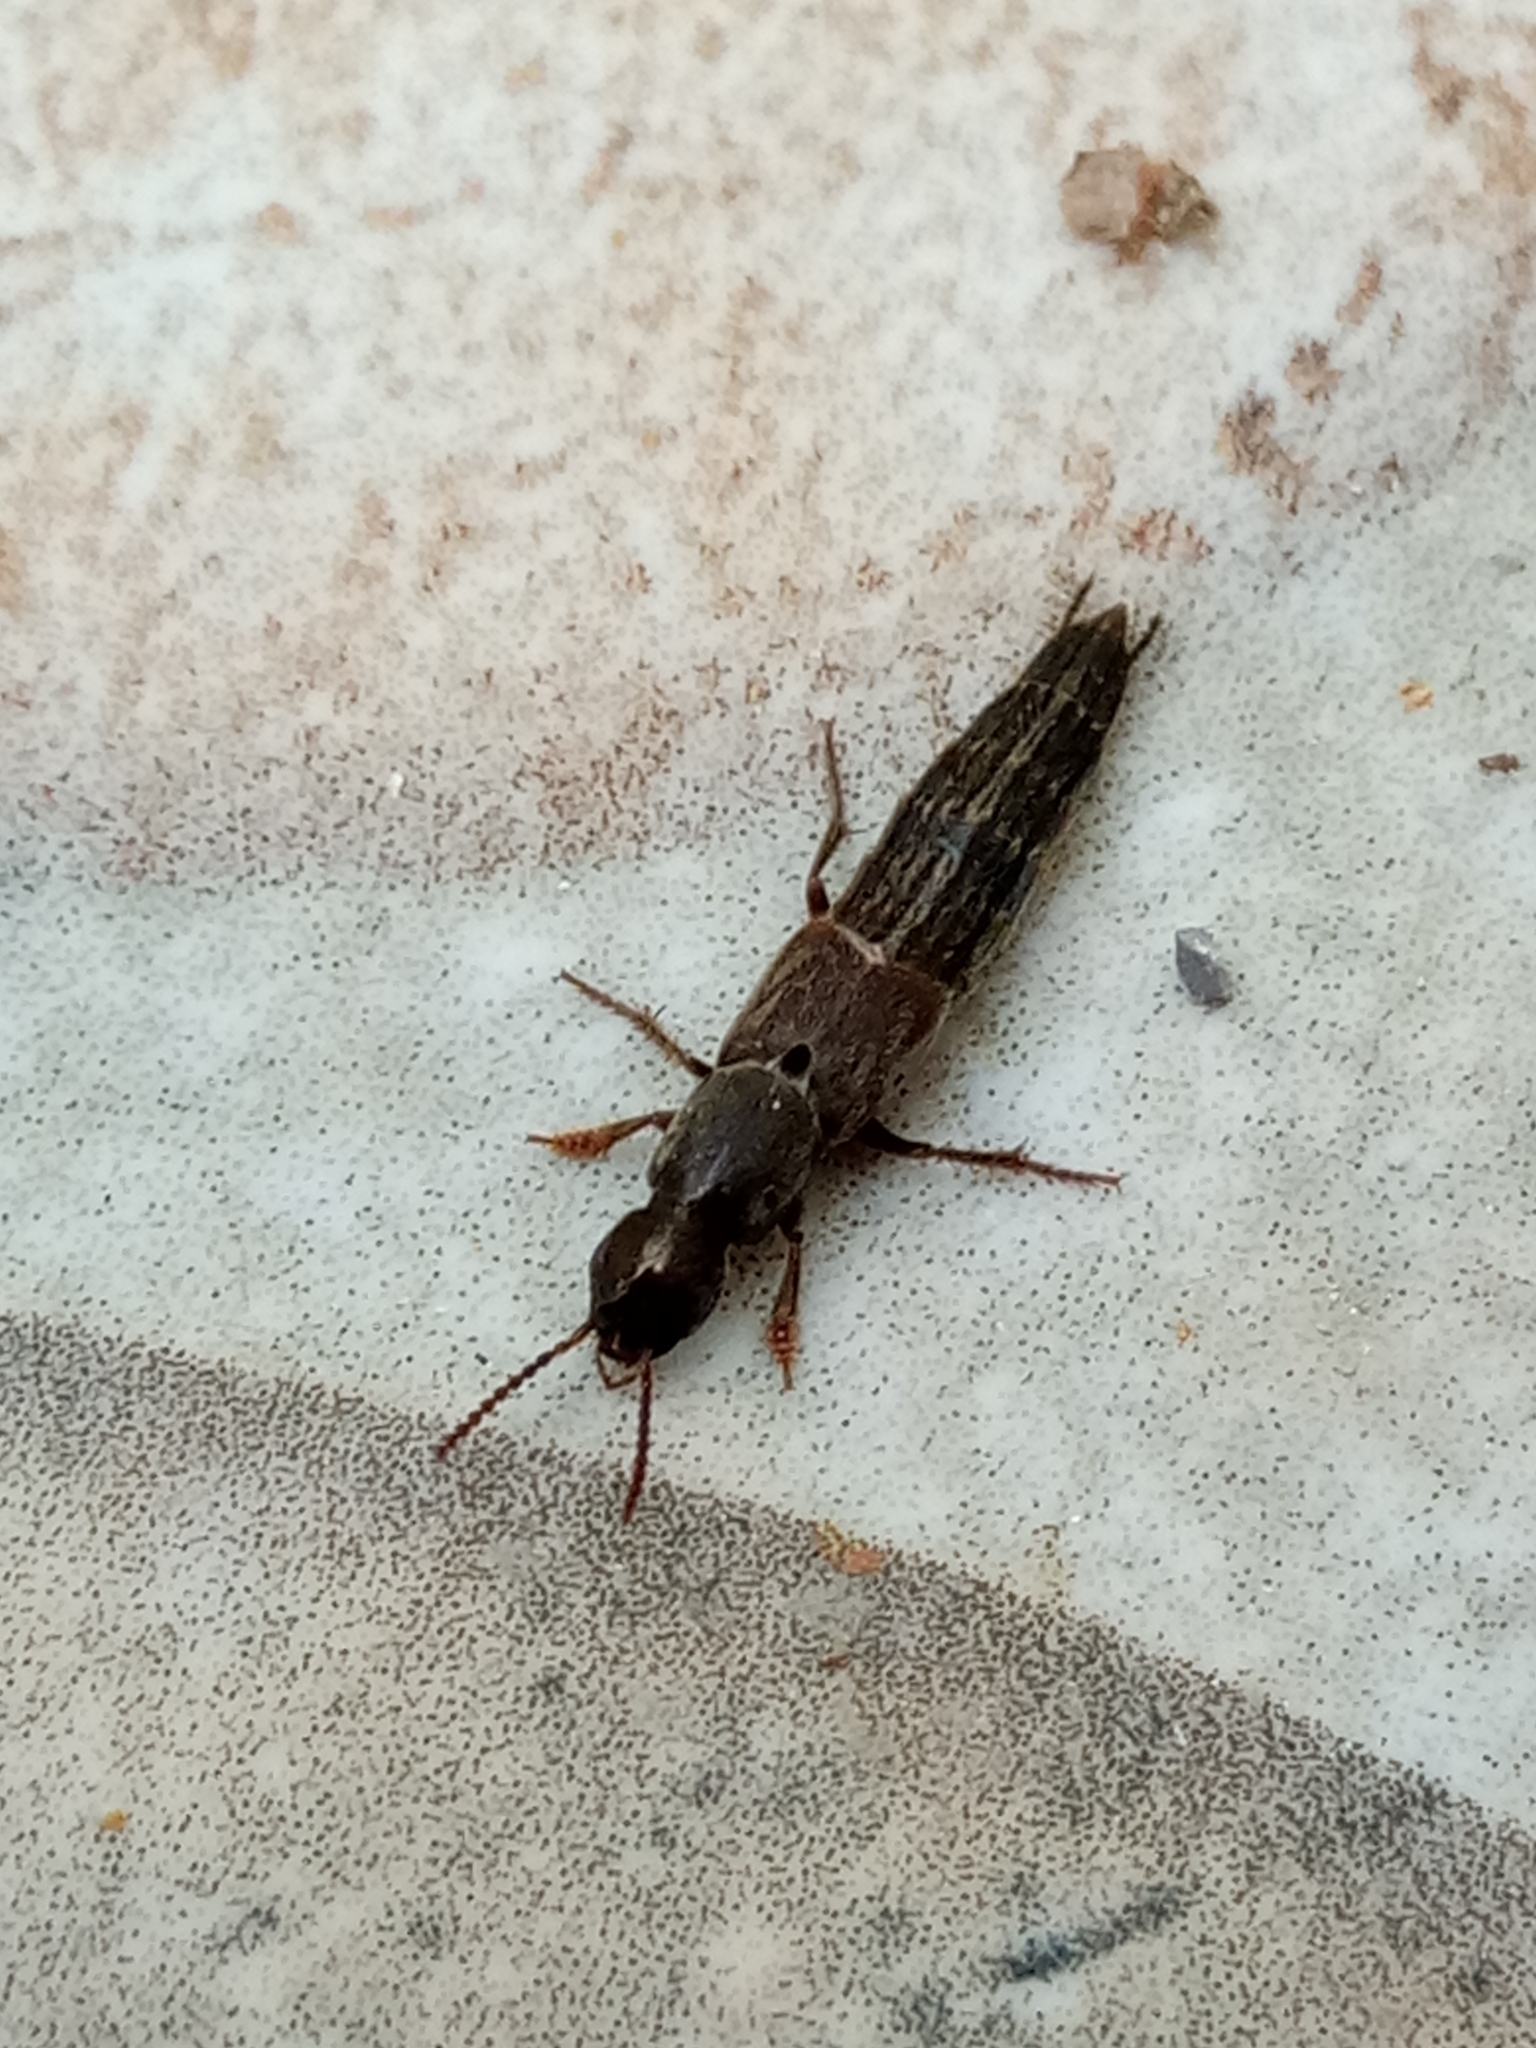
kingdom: Animalia
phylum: Arthropoda
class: Insecta
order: Coleoptera
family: Staphylinidae
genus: Ocypus
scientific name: Ocypus fortunatarum
